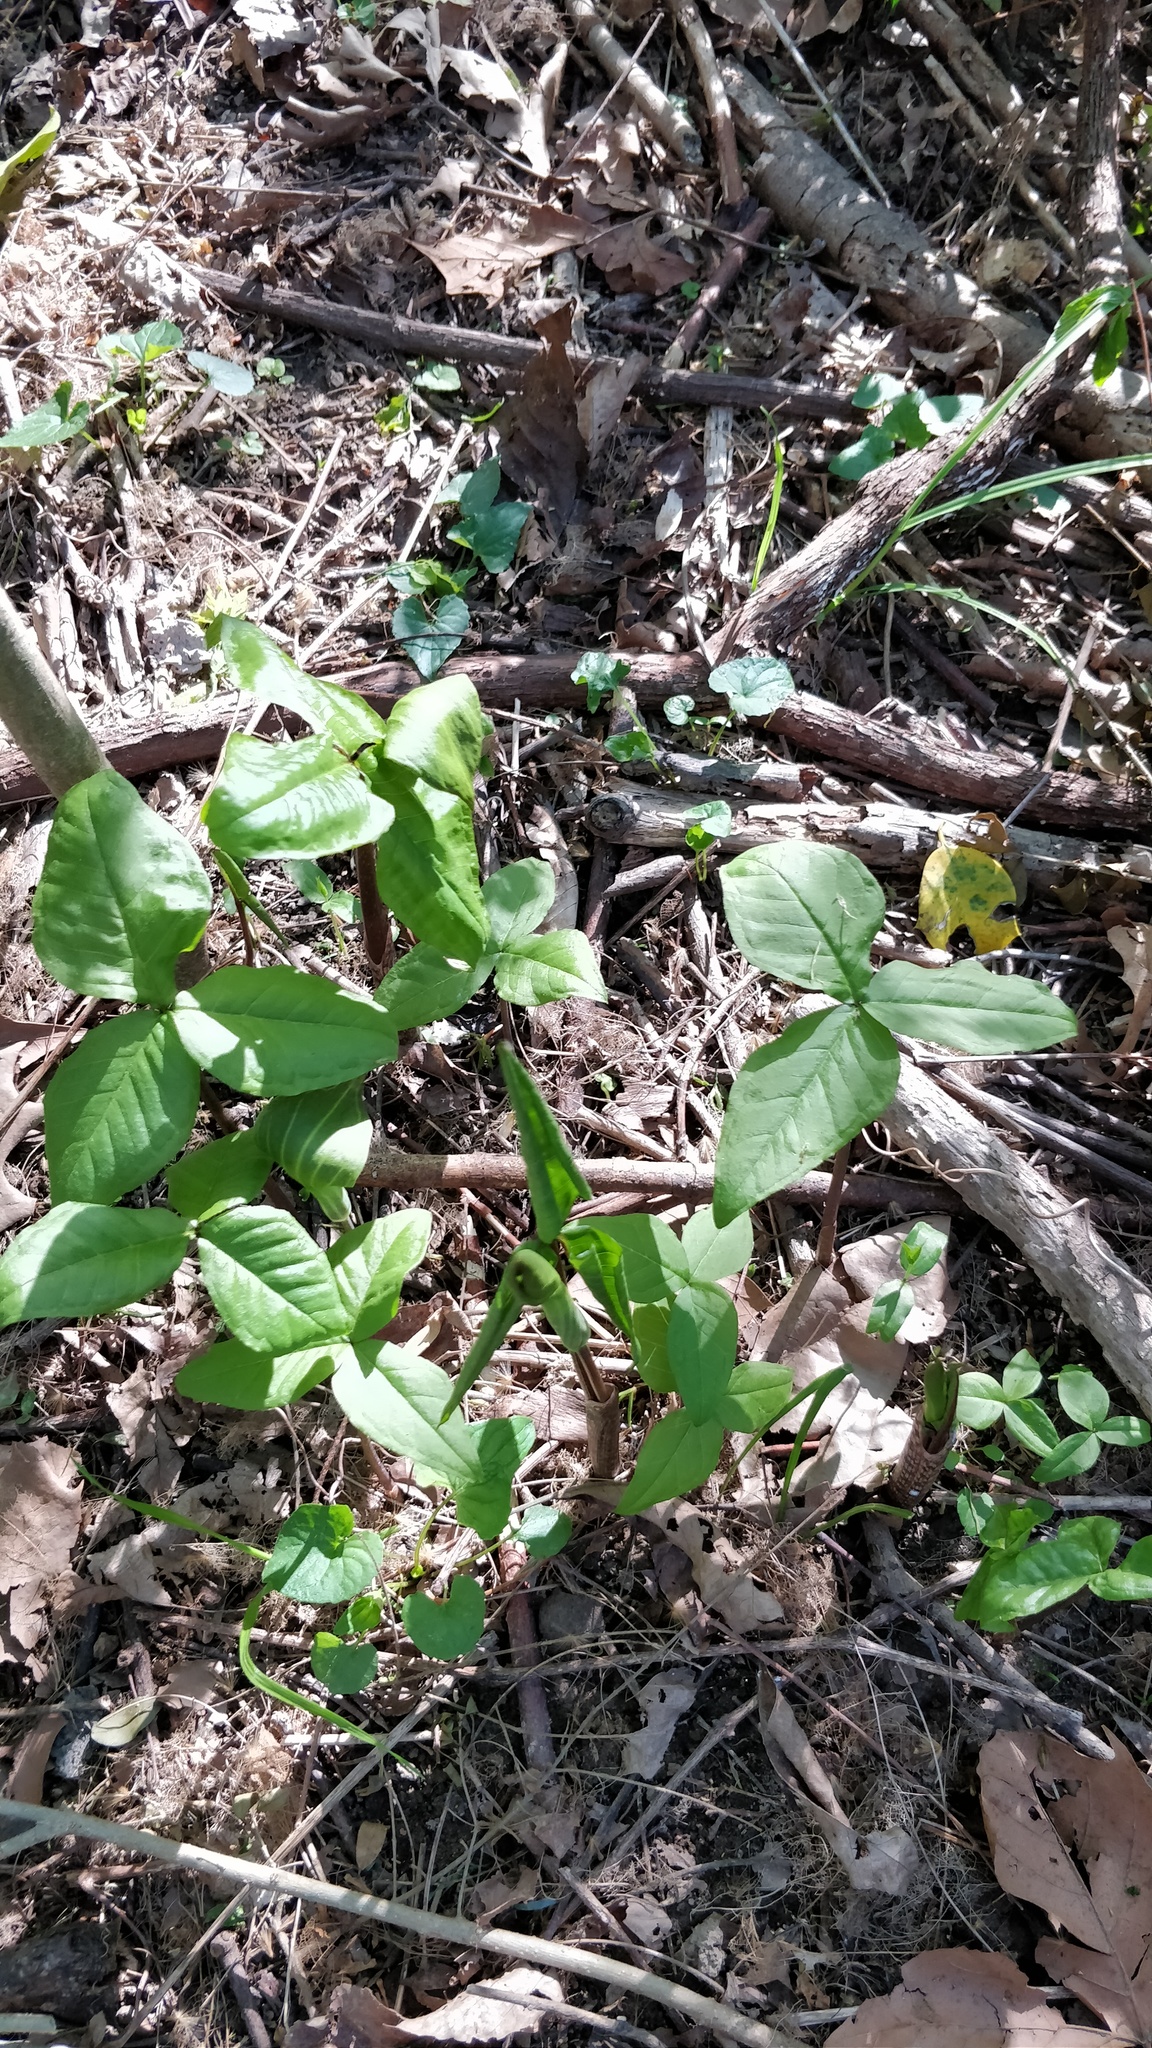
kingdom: Plantae
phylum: Tracheophyta
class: Liliopsida
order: Alismatales
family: Araceae
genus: Arisaema
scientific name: Arisaema triphyllum
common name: Jack-in-the-pulpit
